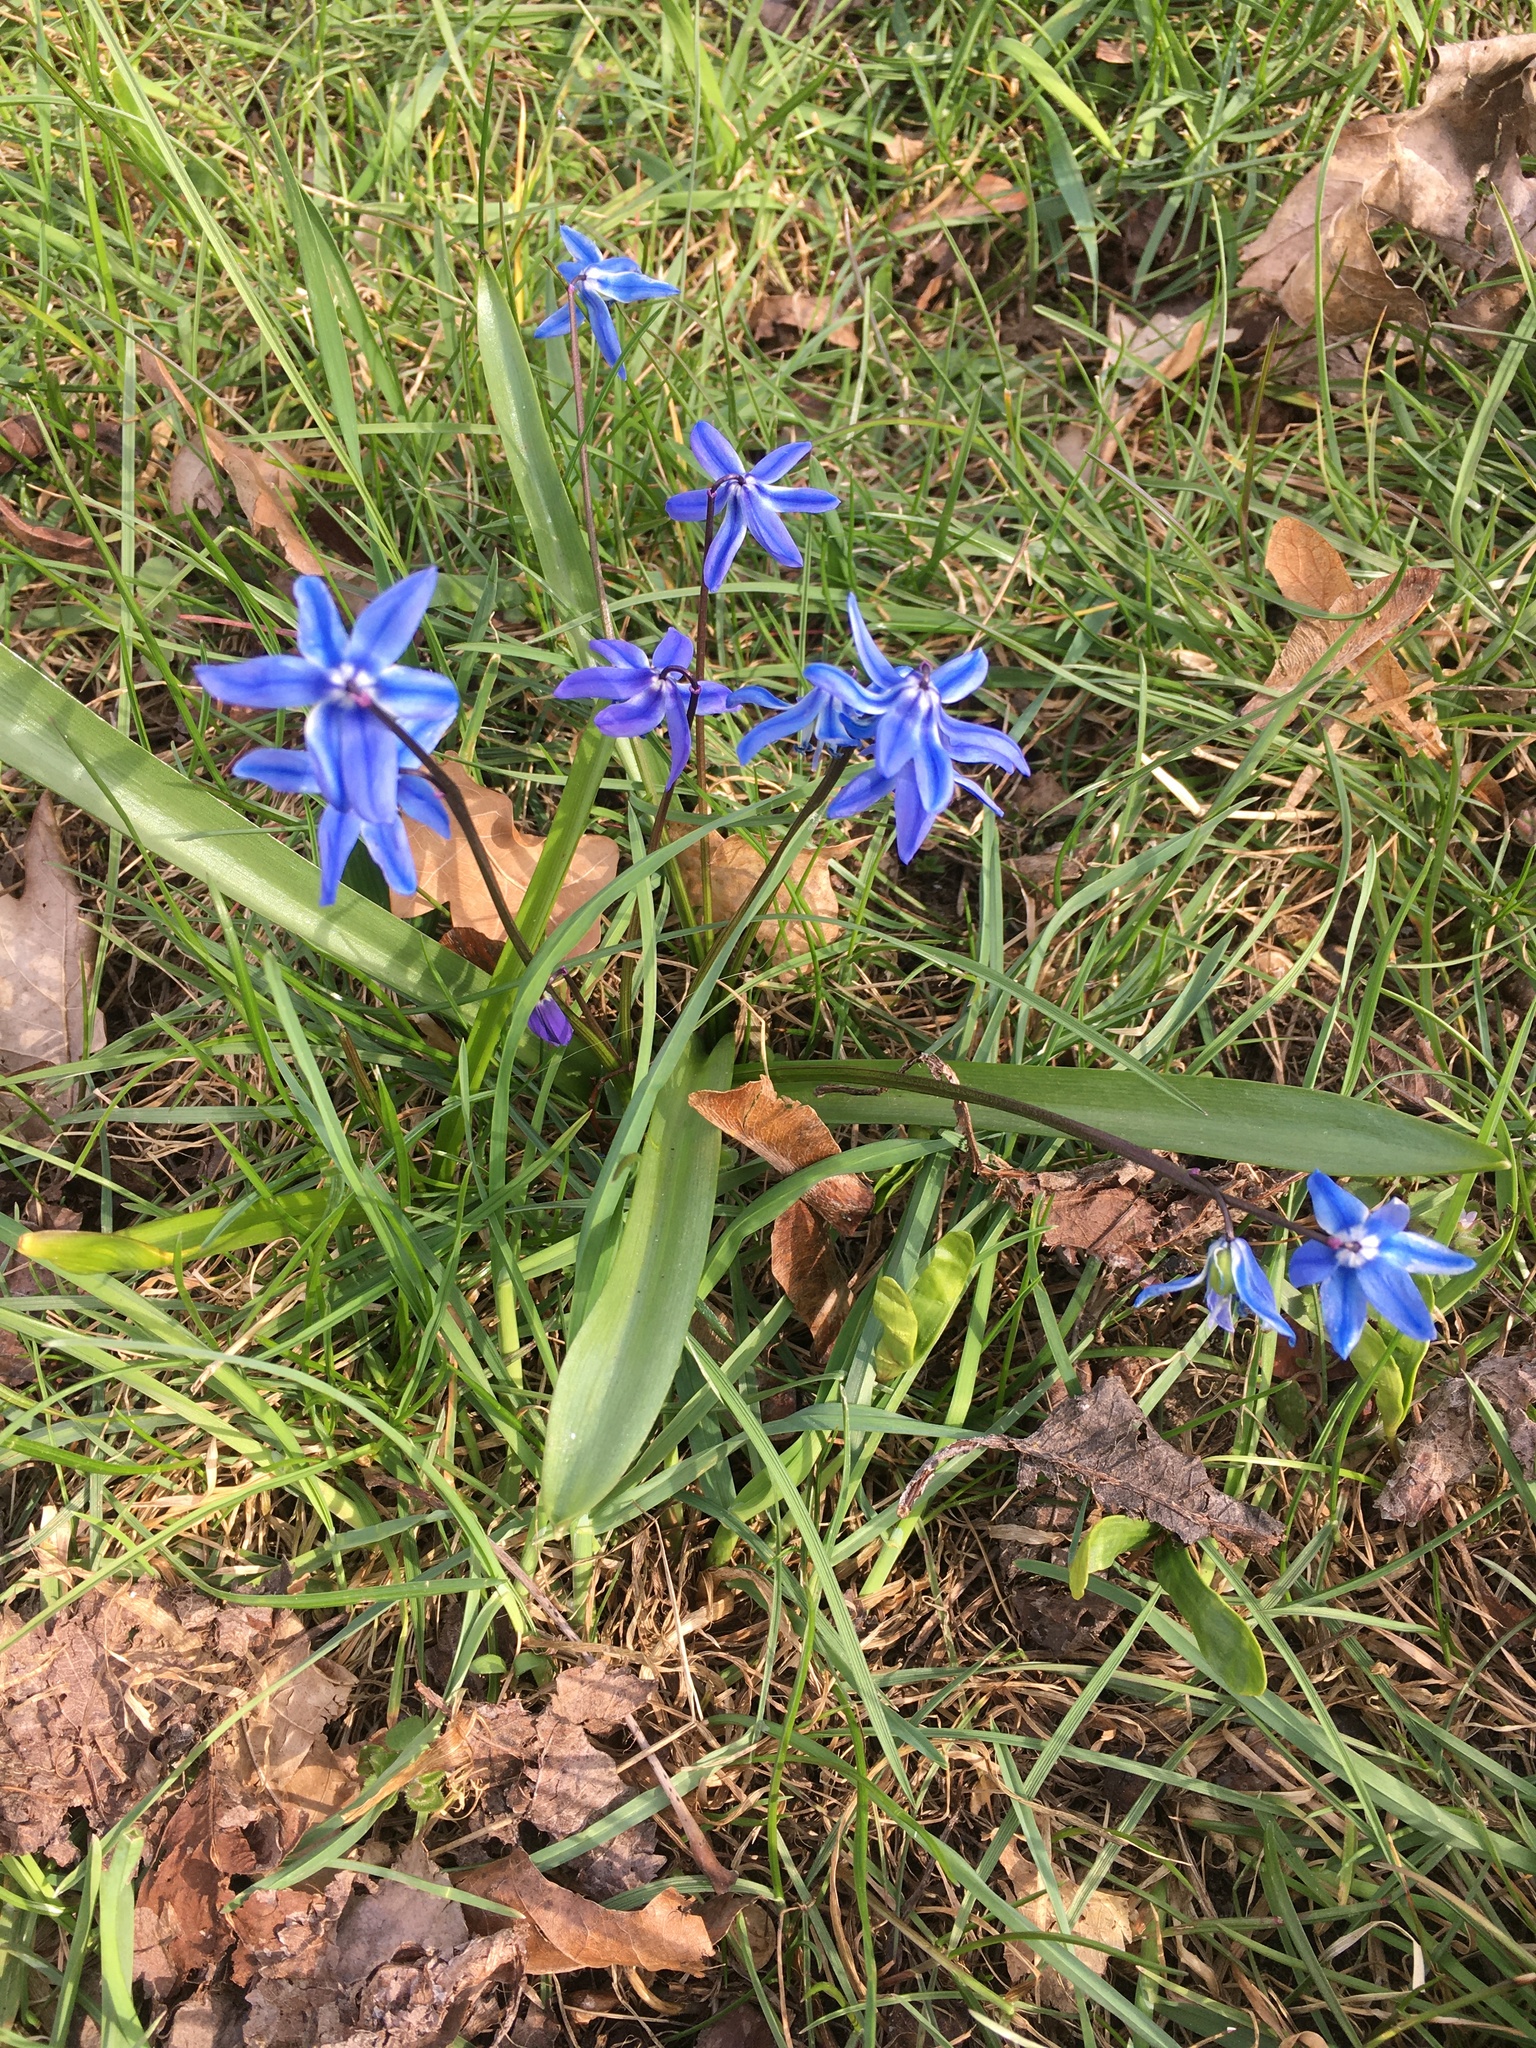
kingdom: Plantae
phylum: Tracheophyta
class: Liliopsida
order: Asparagales
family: Asparagaceae
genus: Scilla
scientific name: Scilla siberica
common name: Siberian squill
